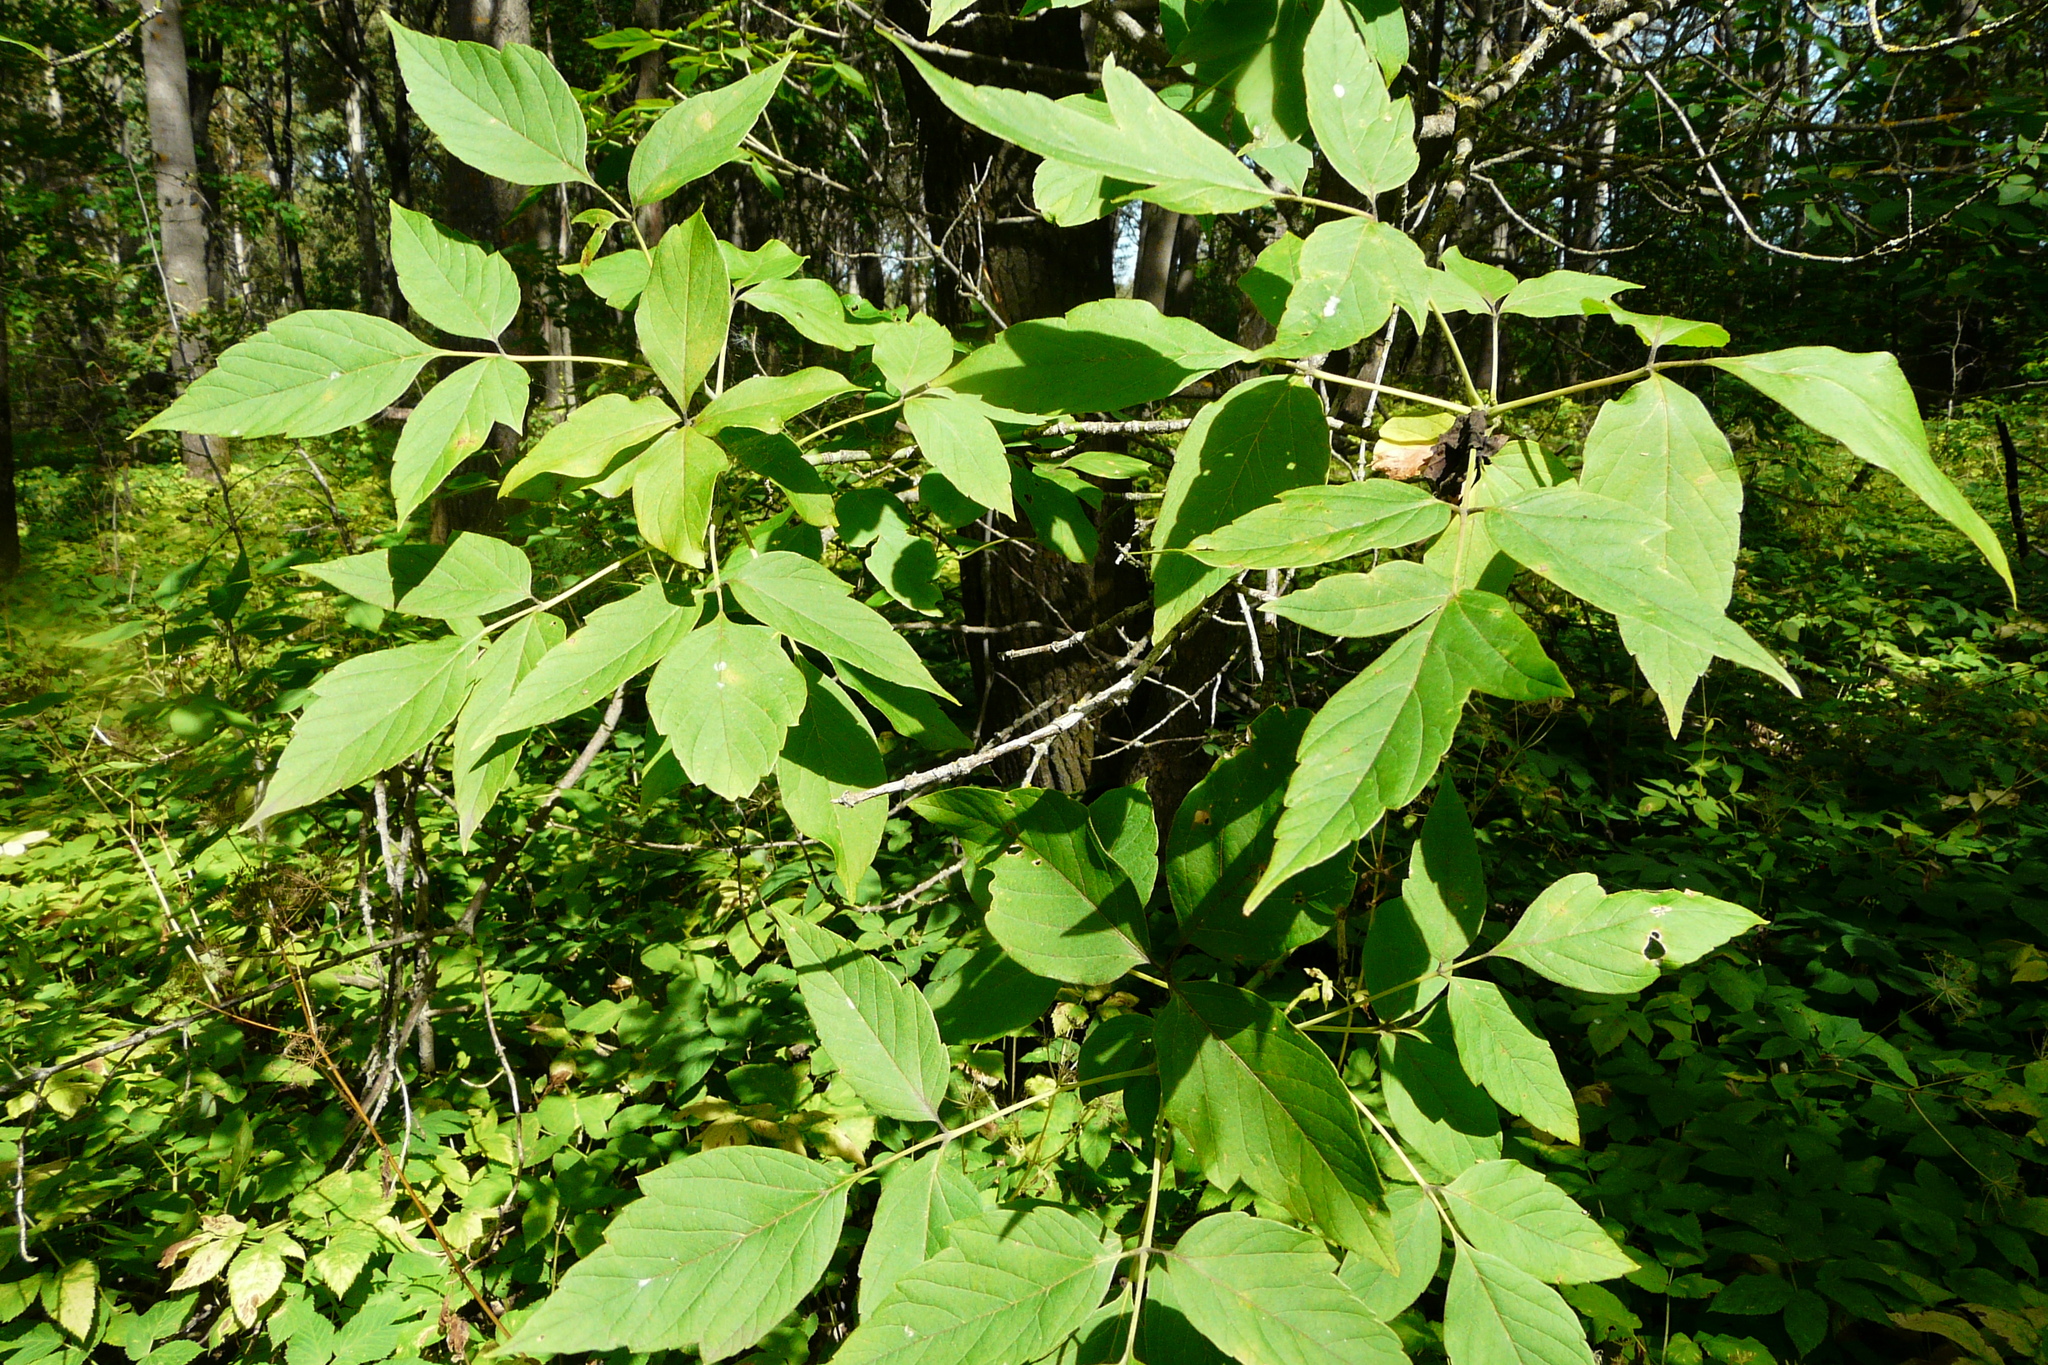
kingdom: Plantae
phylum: Tracheophyta
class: Magnoliopsida
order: Sapindales
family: Sapindaceae
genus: Acer
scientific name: Acer negundo
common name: Ashleaf maple
